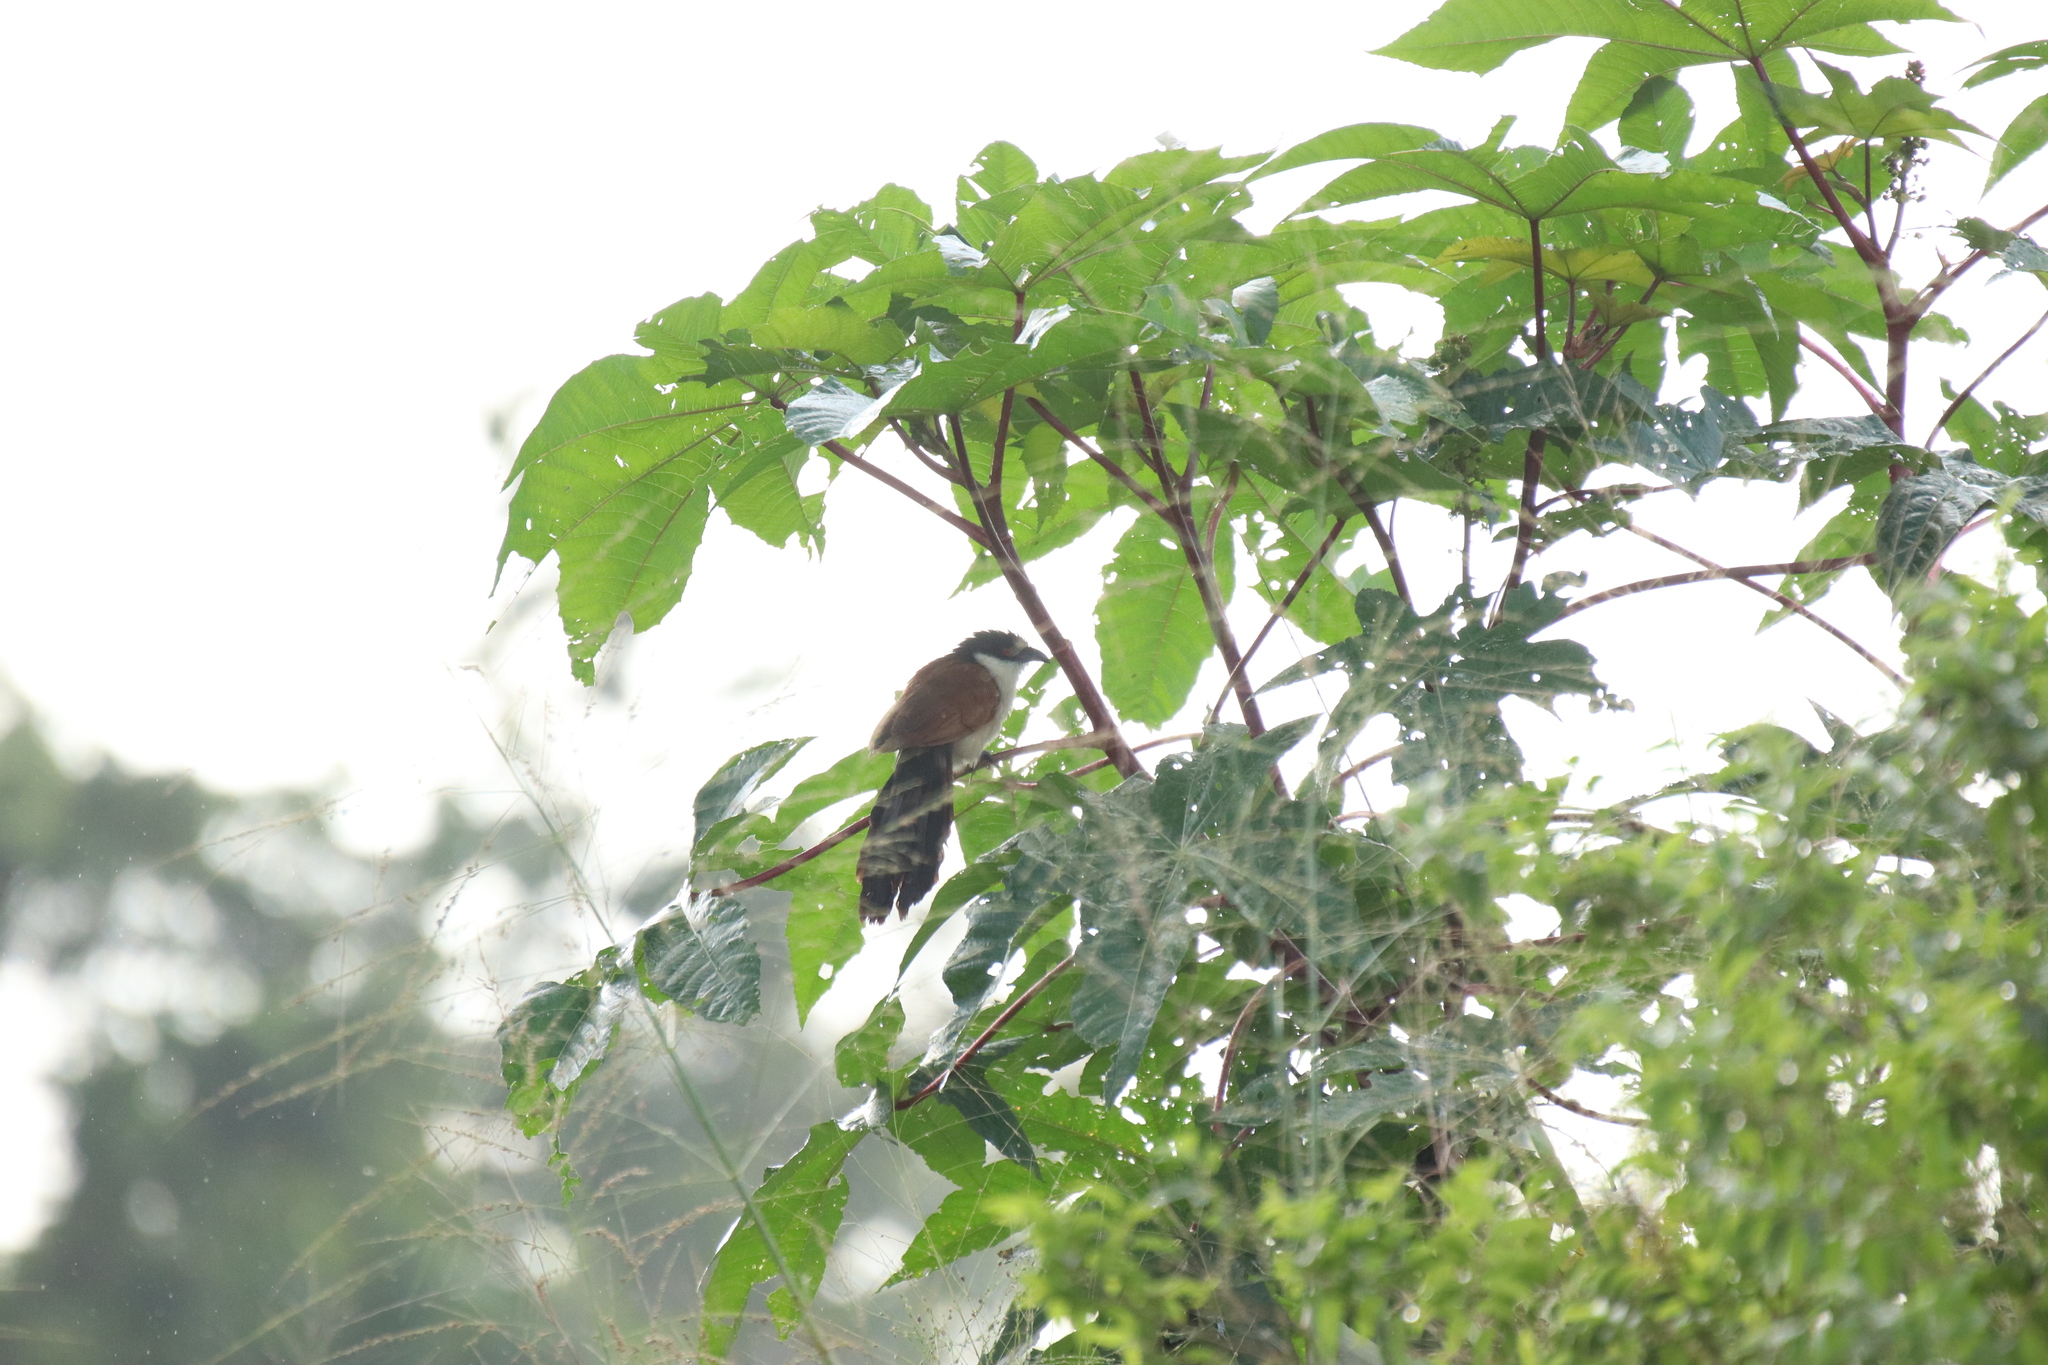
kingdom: Animalia
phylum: Chordata
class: Aves
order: Cuculiformes
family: Cuculidae
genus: Centropus
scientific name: Centropus senegalensis
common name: Senegal coucal
